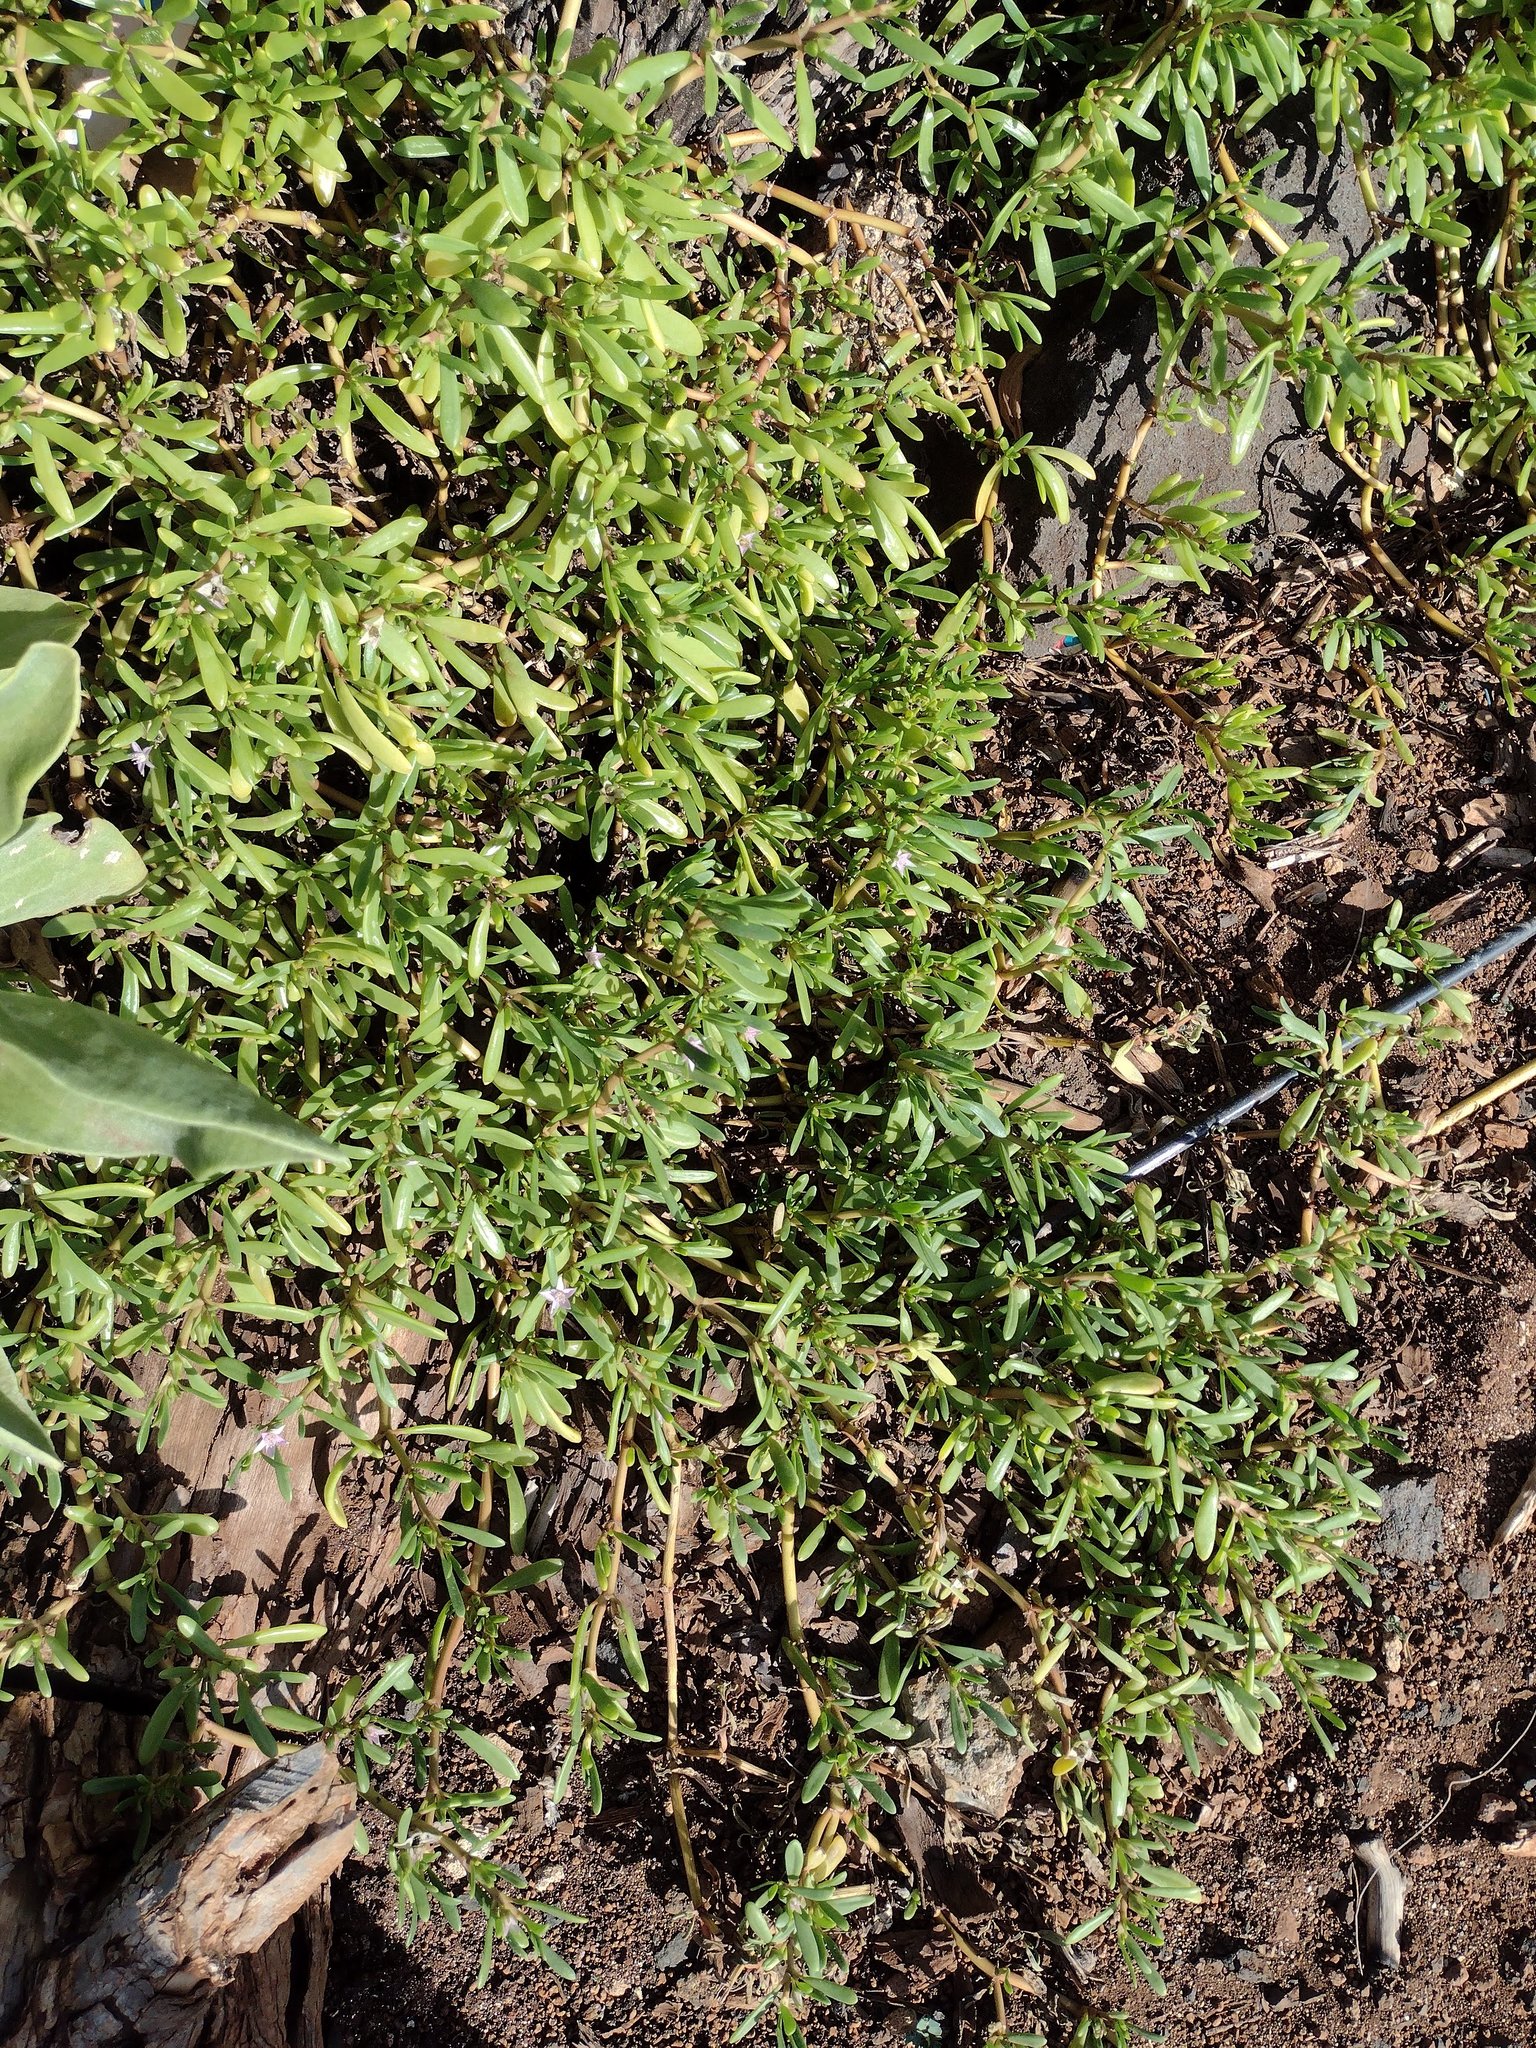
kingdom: Plantae
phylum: Tracheophyta
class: Magnoliopsida
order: Caryophyllales
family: Aizoaceae
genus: Sesuvium
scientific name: Sesuvium portulacastrum
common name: Sea-purslane
